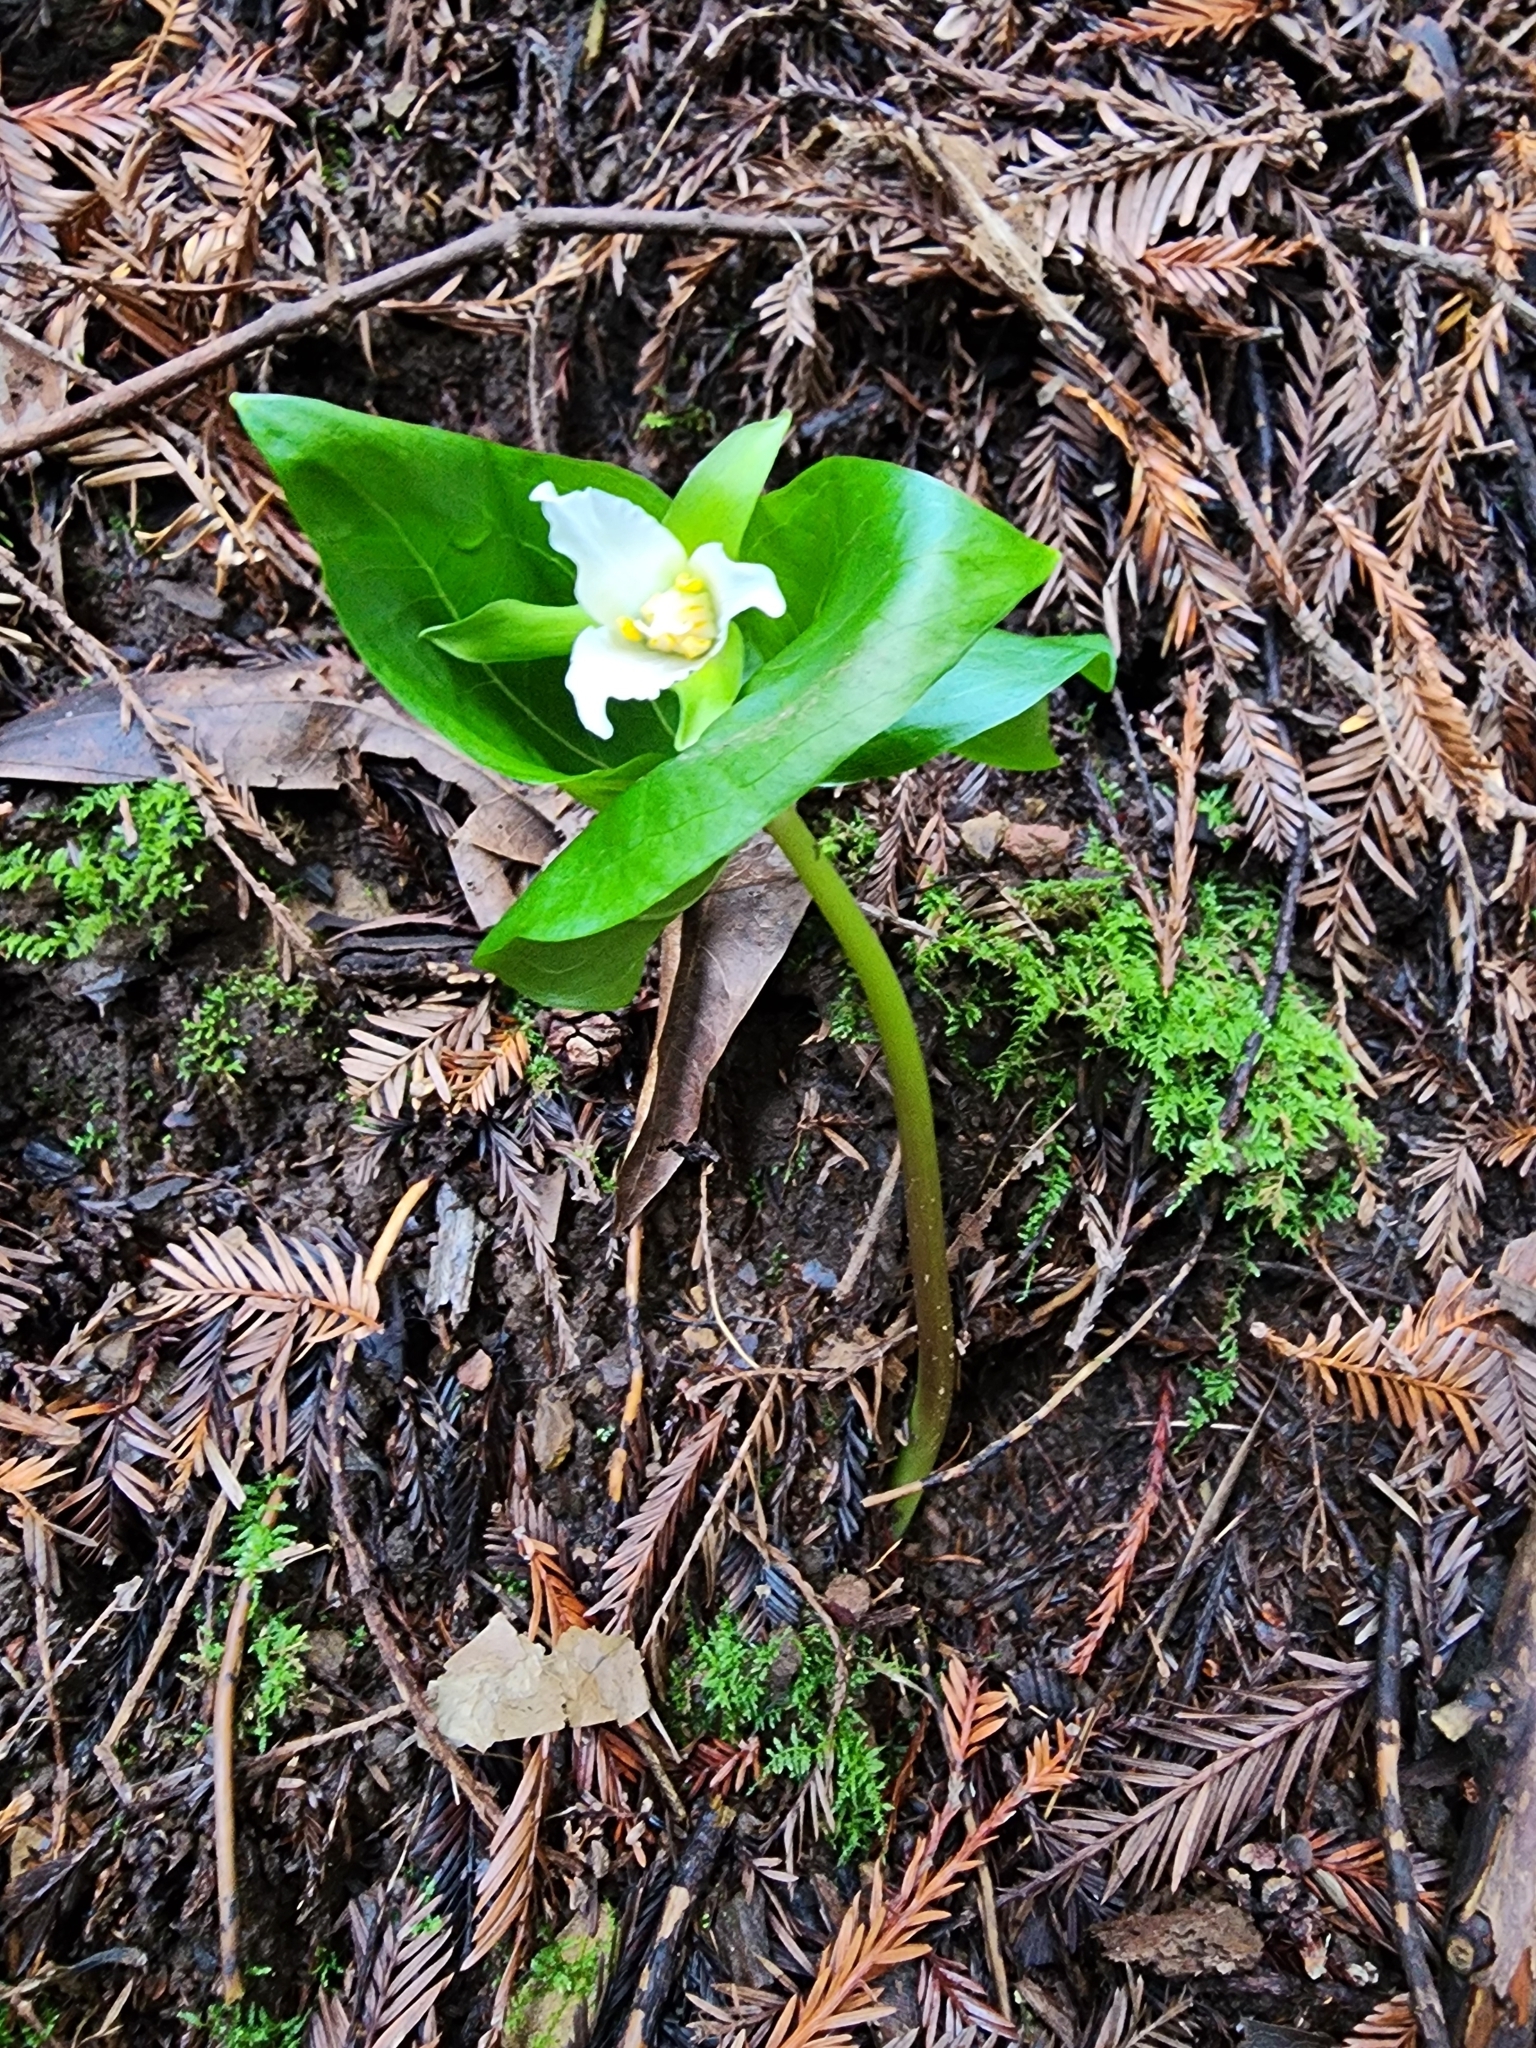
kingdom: Plantae
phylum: Tracheophyta
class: Liliopsida
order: Liliales
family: Melanthiaceae
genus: Trillium
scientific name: Trillium ovatum
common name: Pacific trillium
